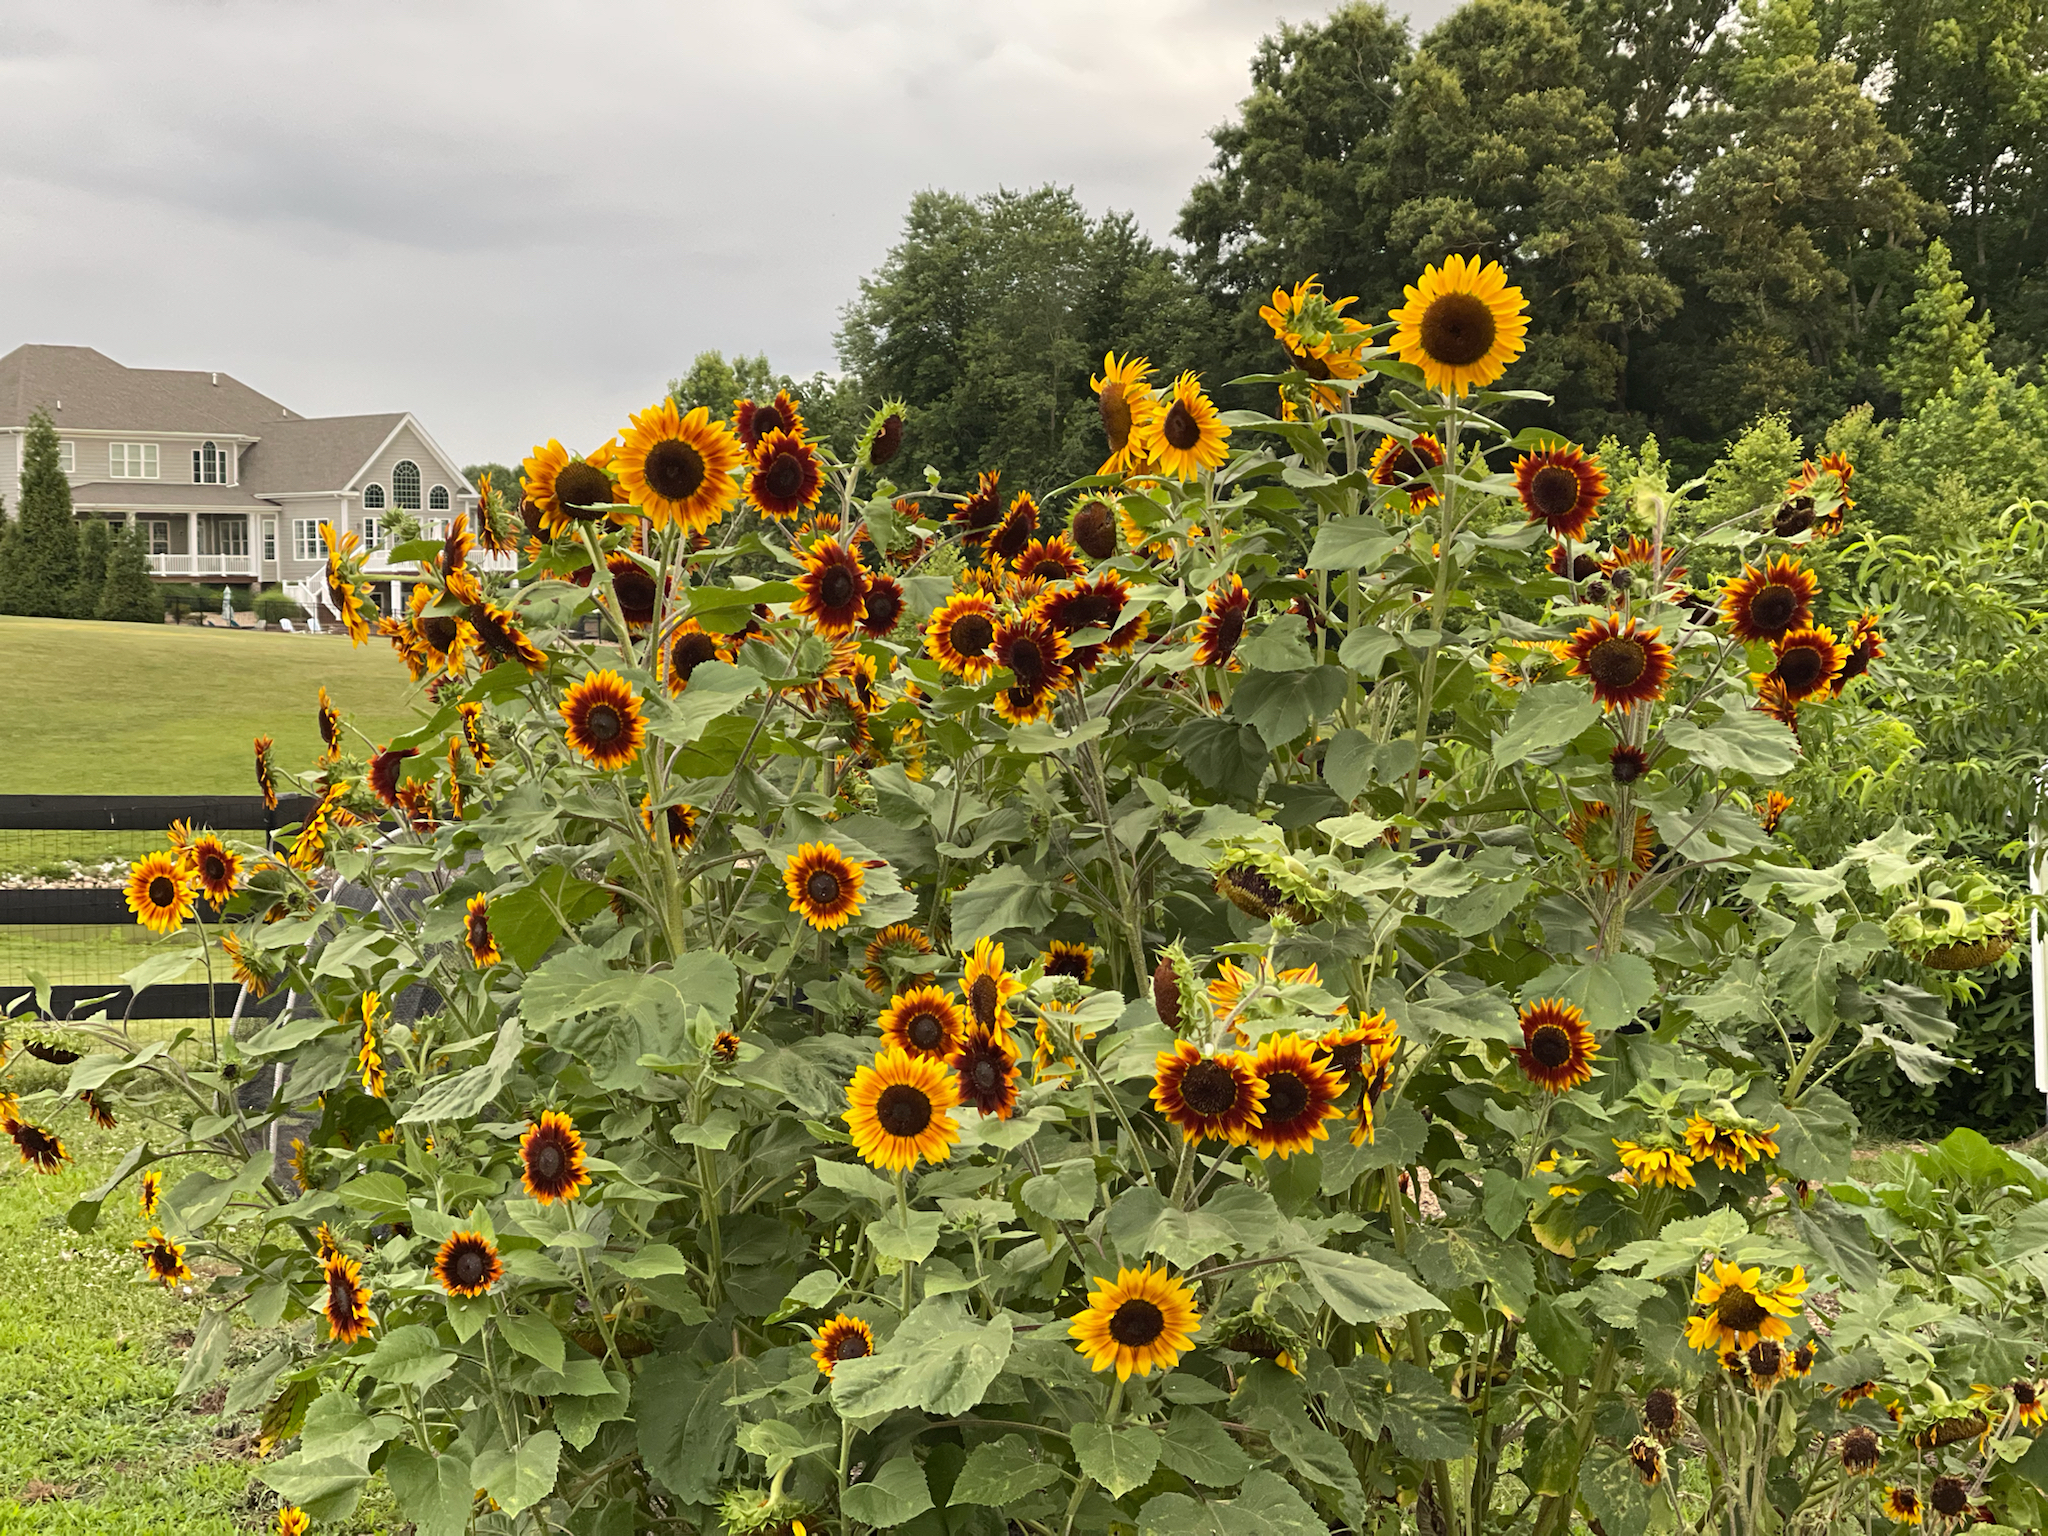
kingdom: Plantae
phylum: Tracheophyta
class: Magnoliopsida
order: Asterales
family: Asteraceae
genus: Helianthus
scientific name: Helianthus annuus
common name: Sunflower
